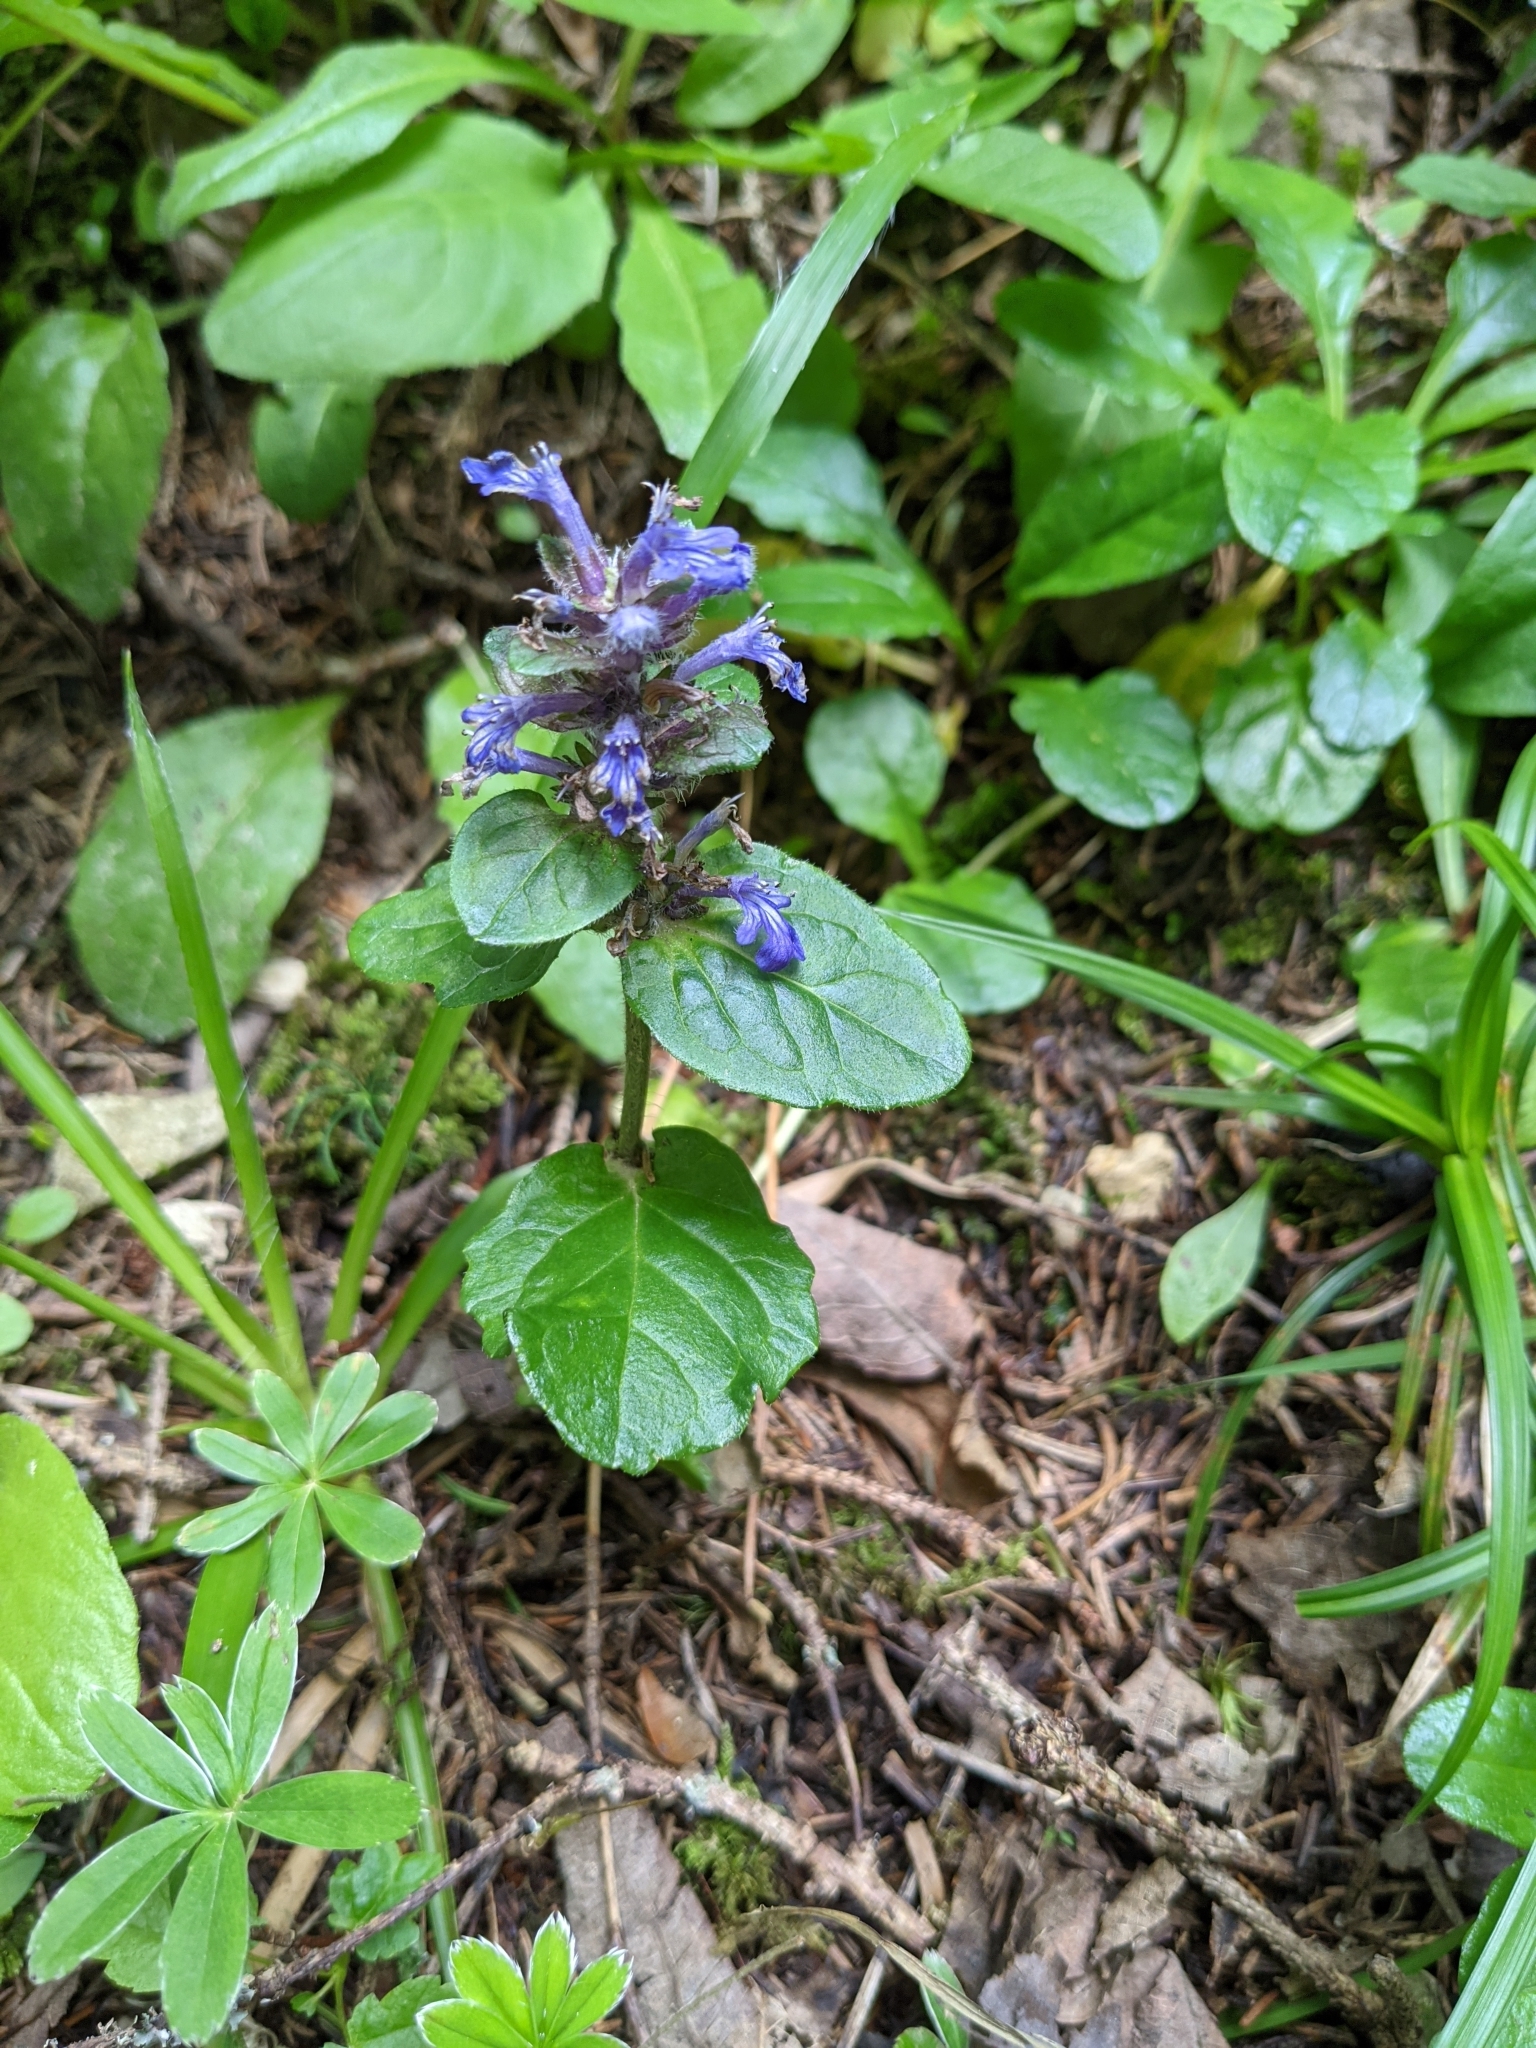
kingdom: Plantae
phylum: Tracheophyta
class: Magnoliopsida
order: Lamiales
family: Lamiaceae
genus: Ajuga
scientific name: Ajuga reptans
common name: Bugle
